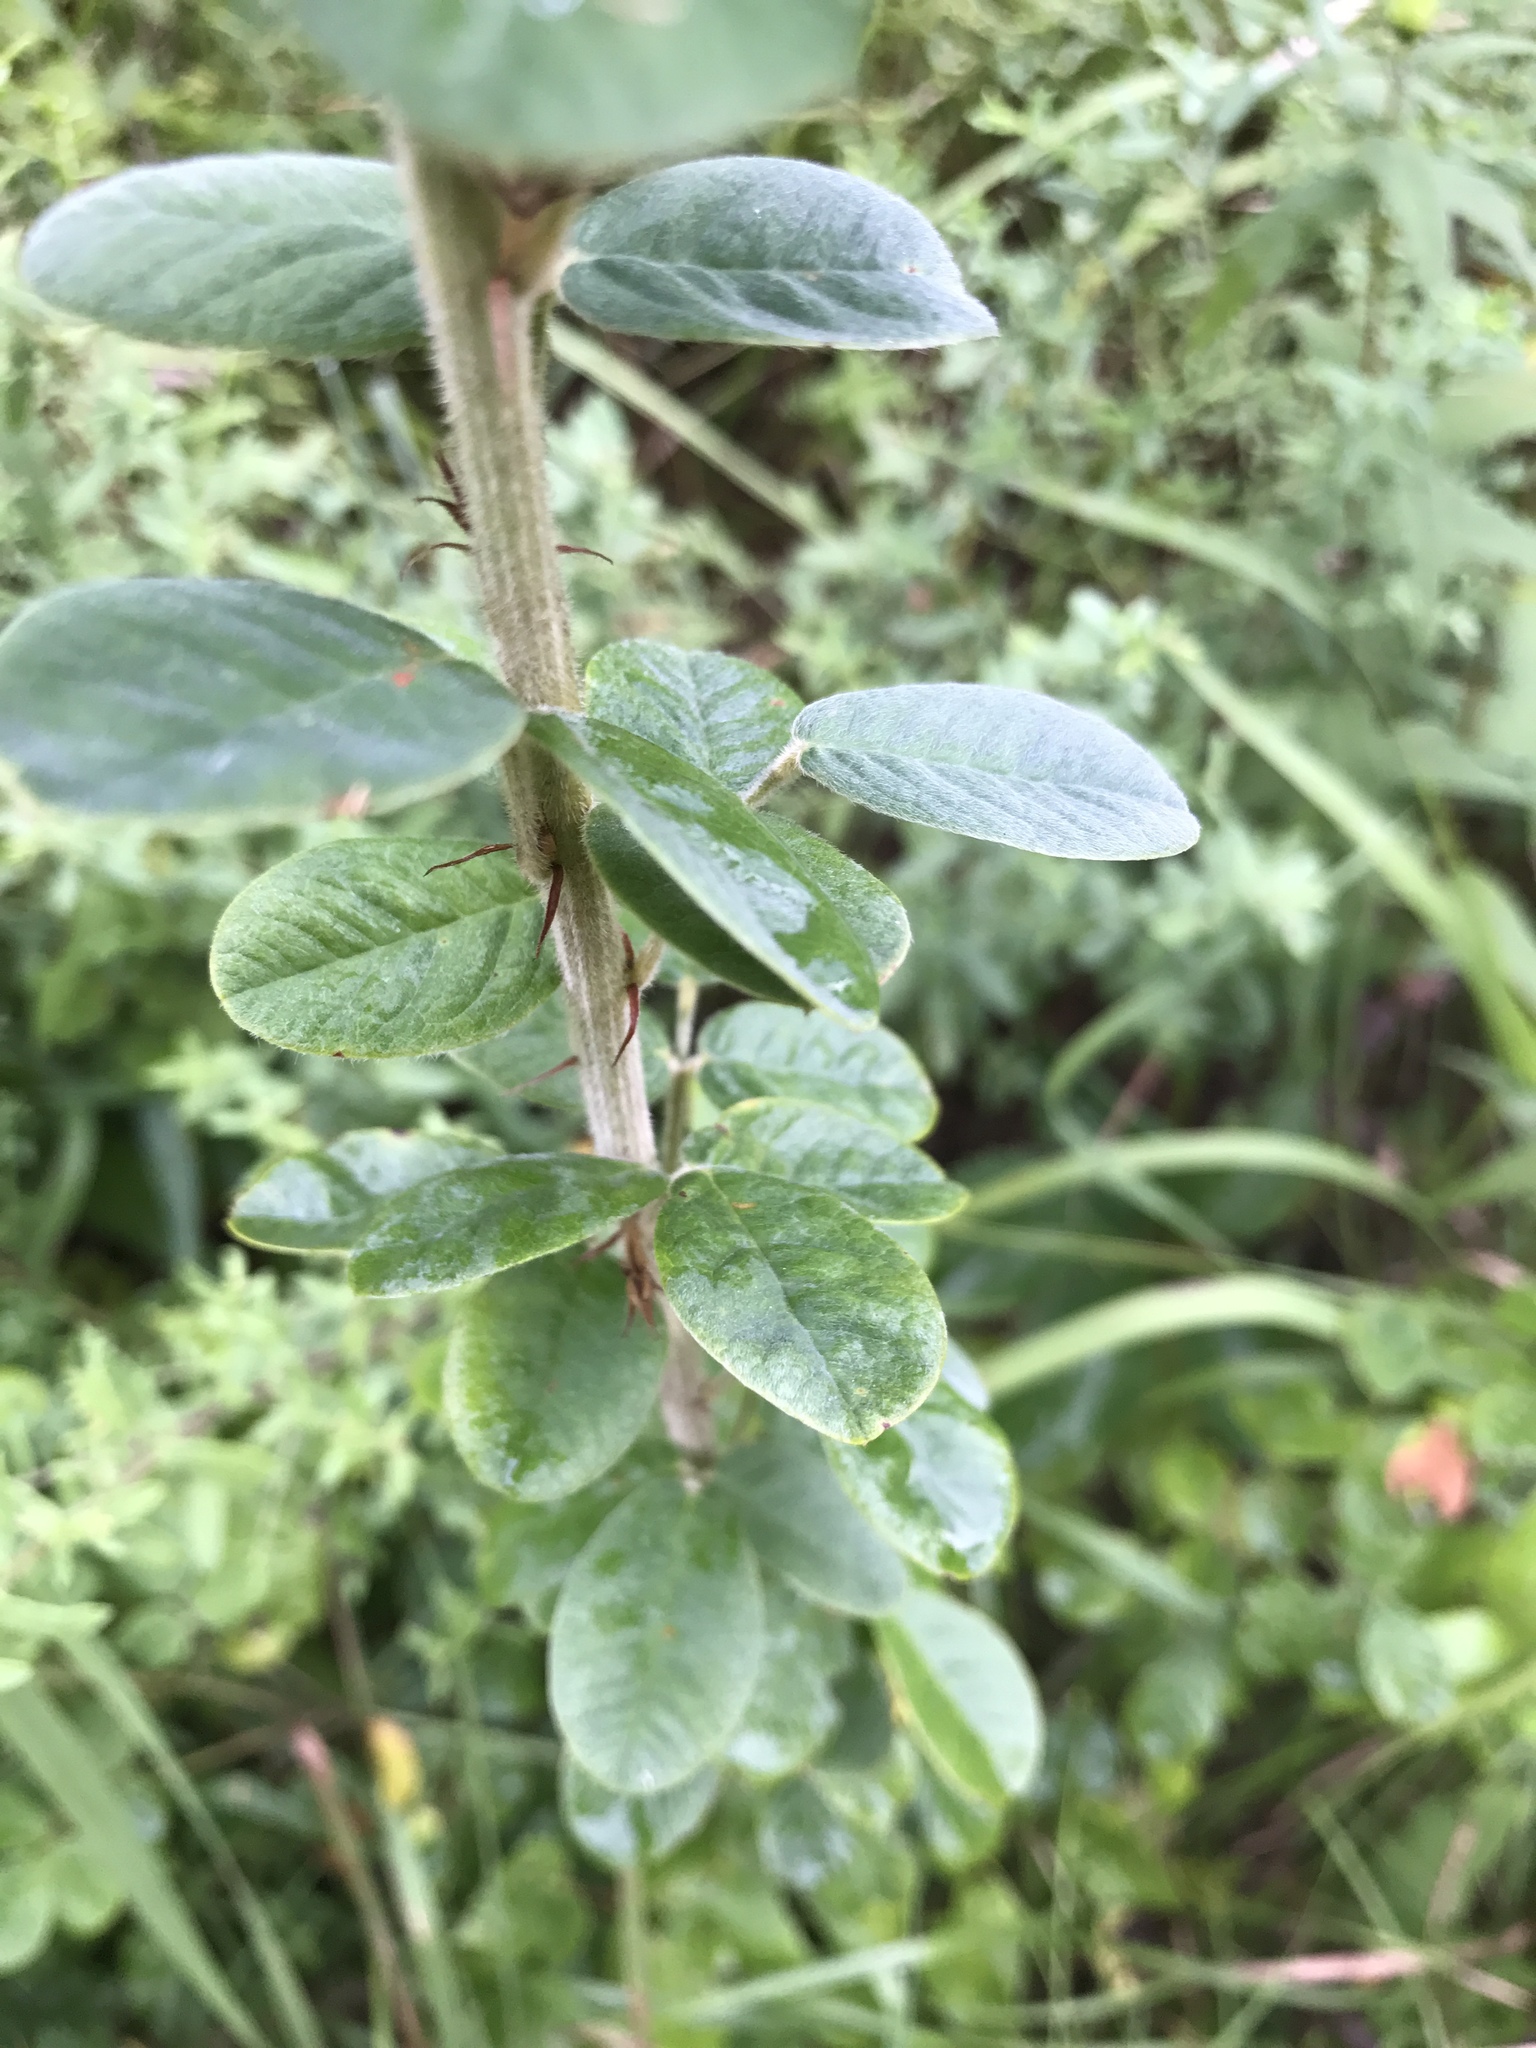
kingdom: Plantae
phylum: Tracheophyta
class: Magnoliopsida
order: Fabales
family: Fabaceae
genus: Lespedeza
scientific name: Lespedeza hirta
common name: Hairy lespedeza
